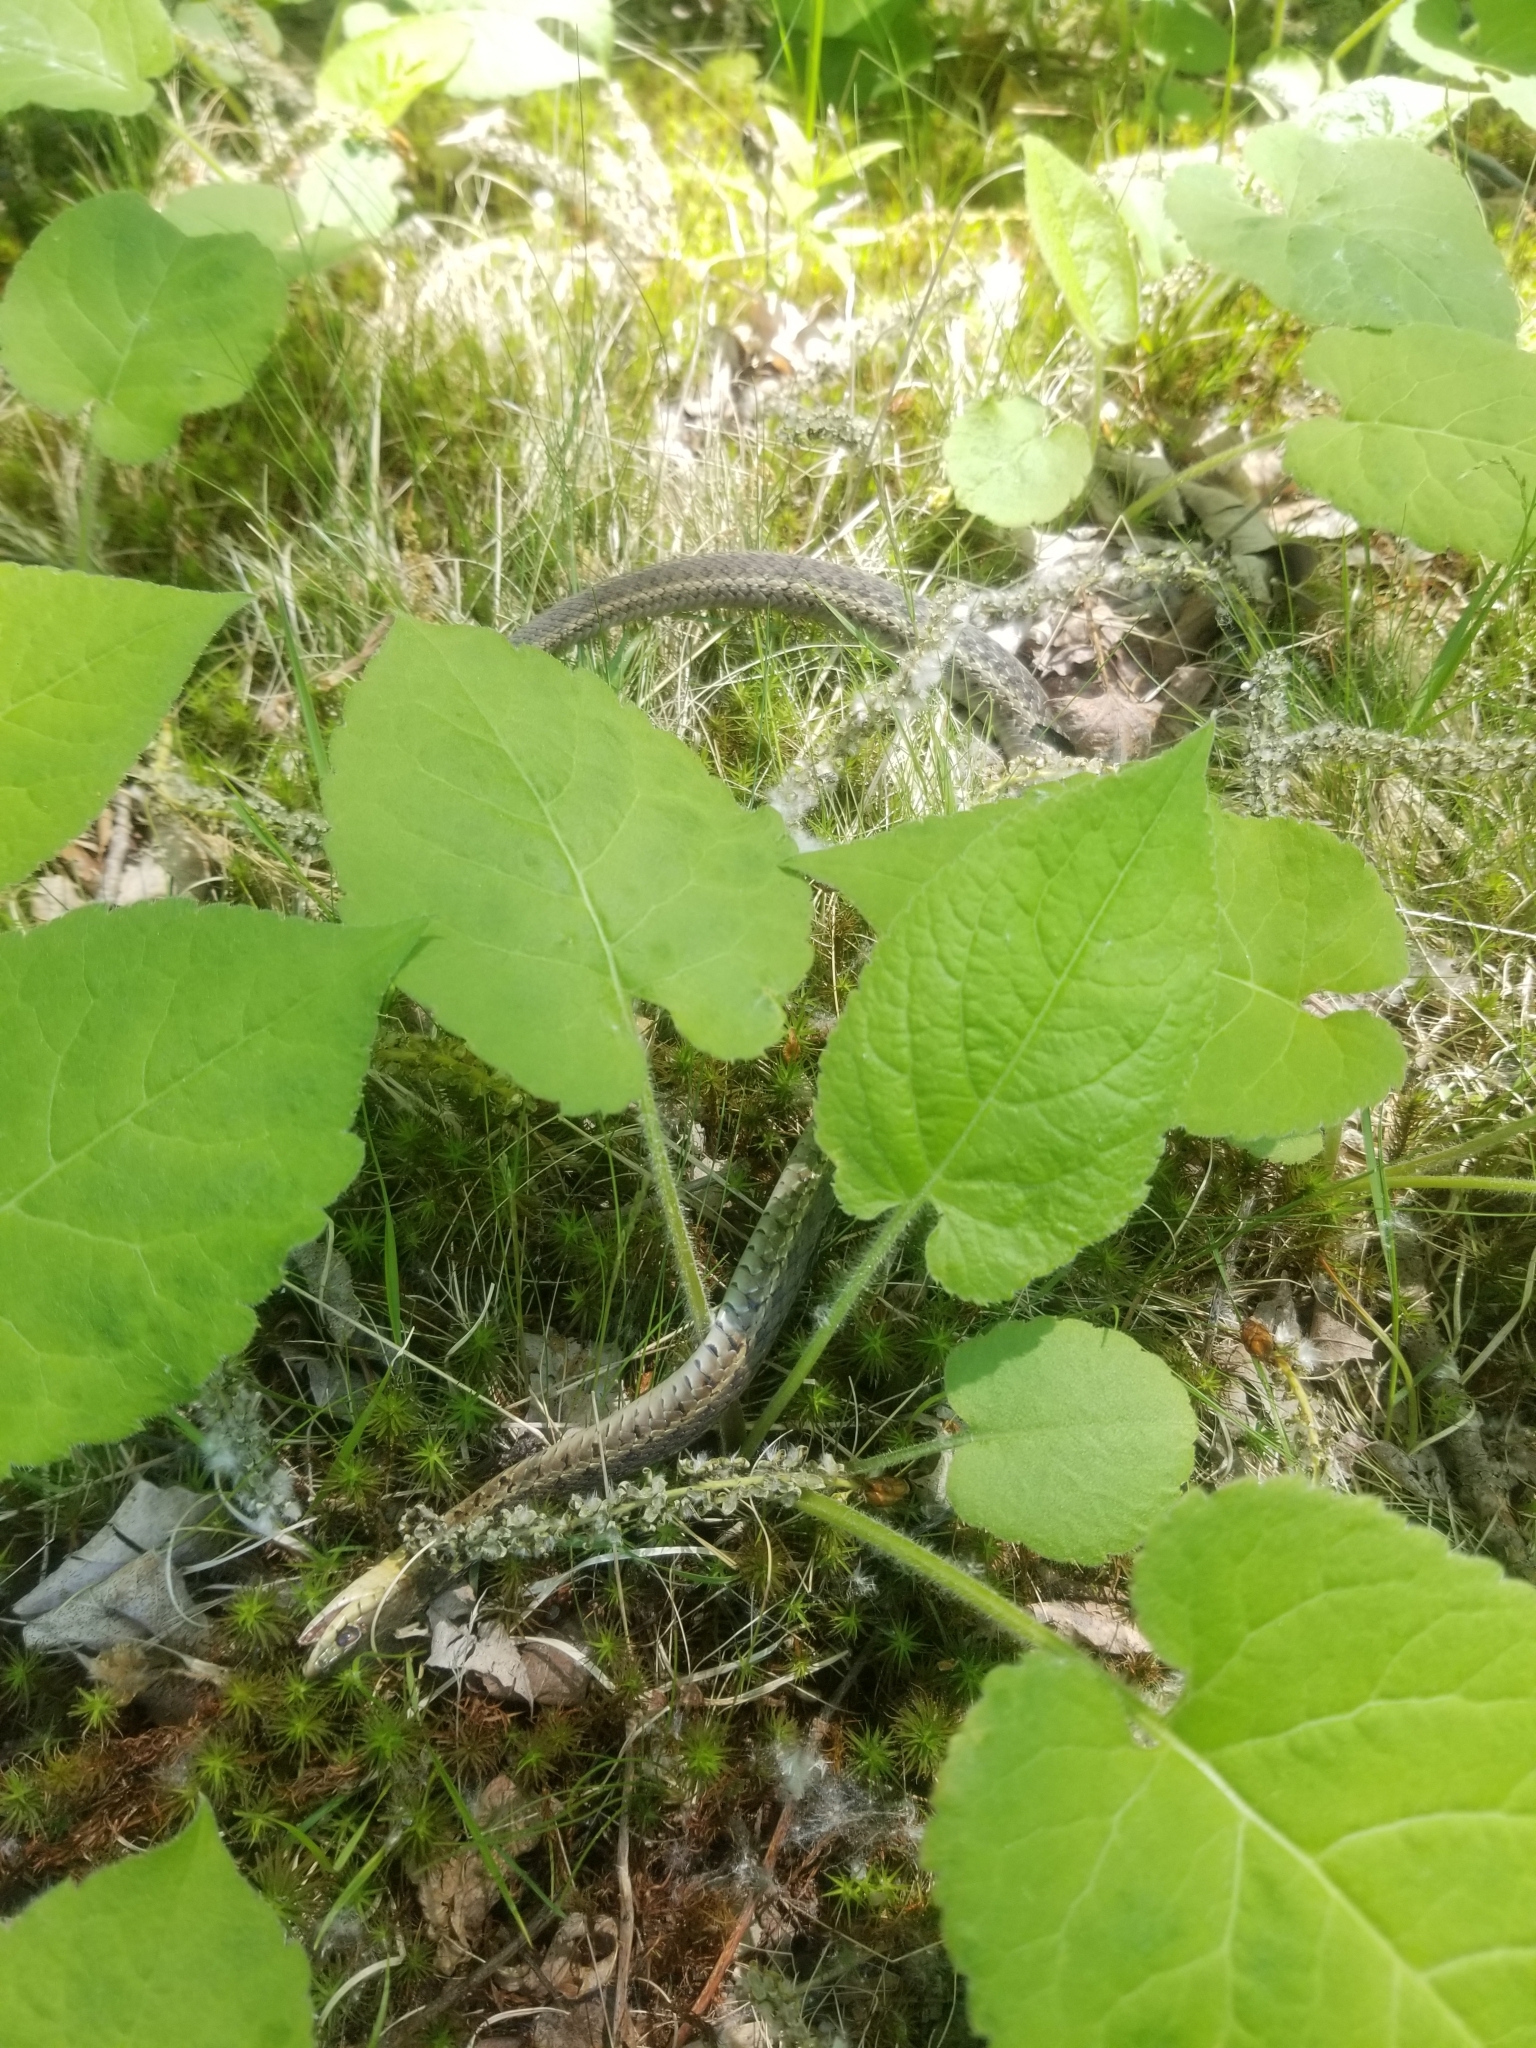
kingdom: Animalia
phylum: Chordata
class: Squamata
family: Colubridae
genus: Thamnophis
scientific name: Thamnophis sirtalis
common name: Common garter snake
